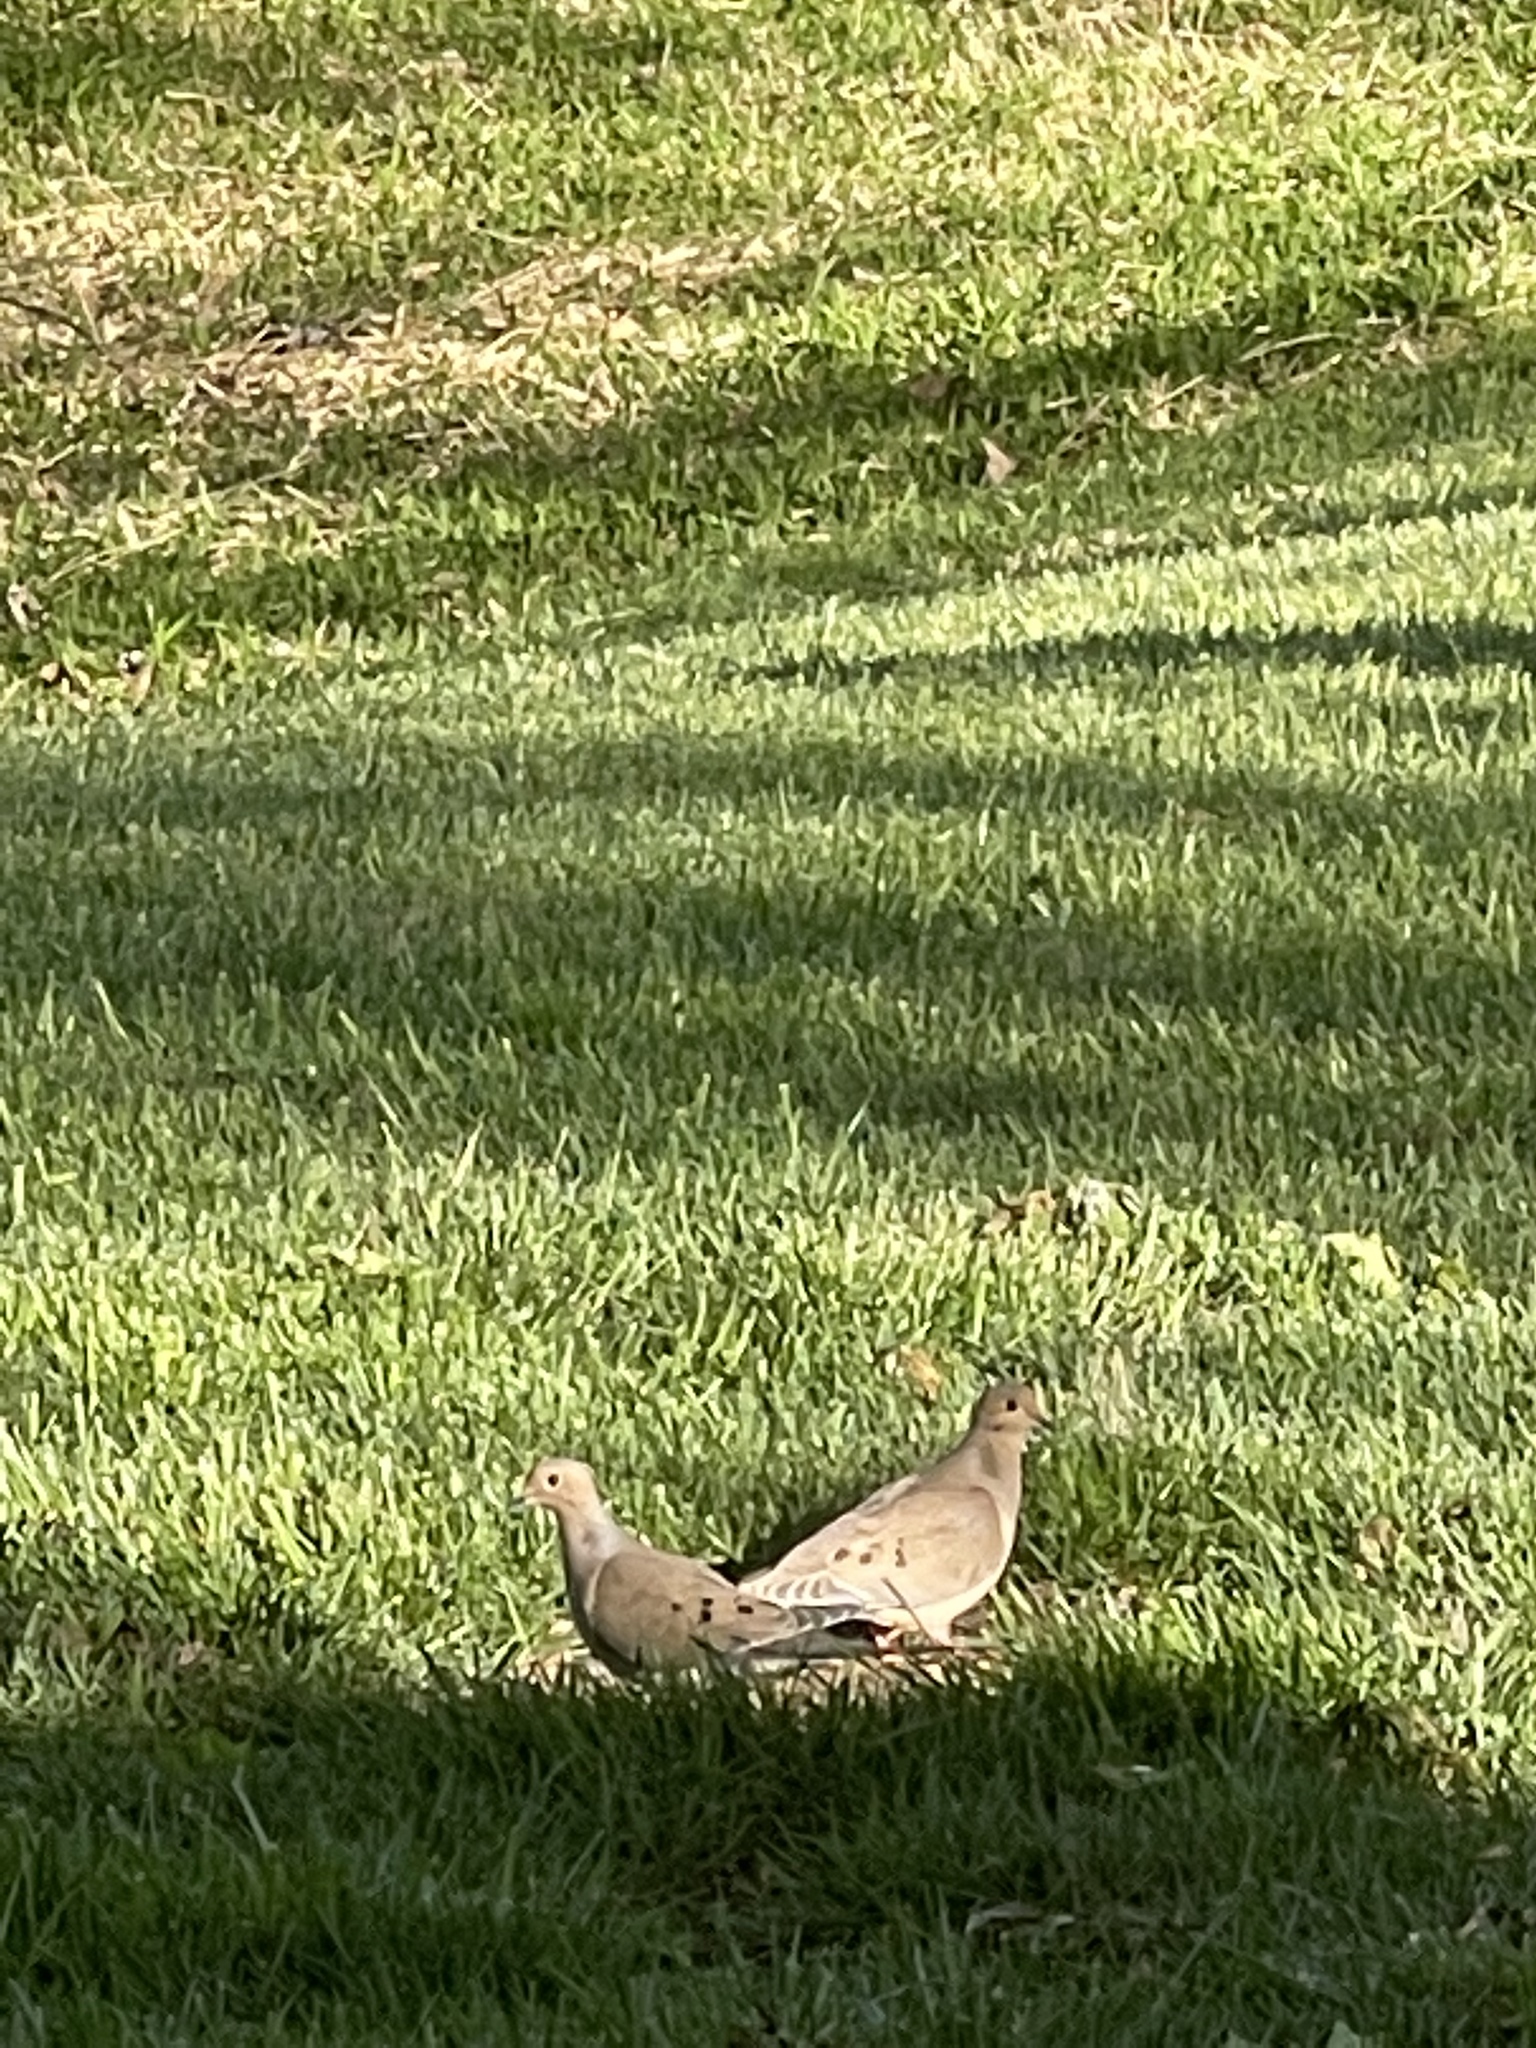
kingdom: Animalia
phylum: Chordata
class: Aves
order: Columbiformes
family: Columbidae
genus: Zenaida
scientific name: Zenaida macroura
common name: Mourning dove
